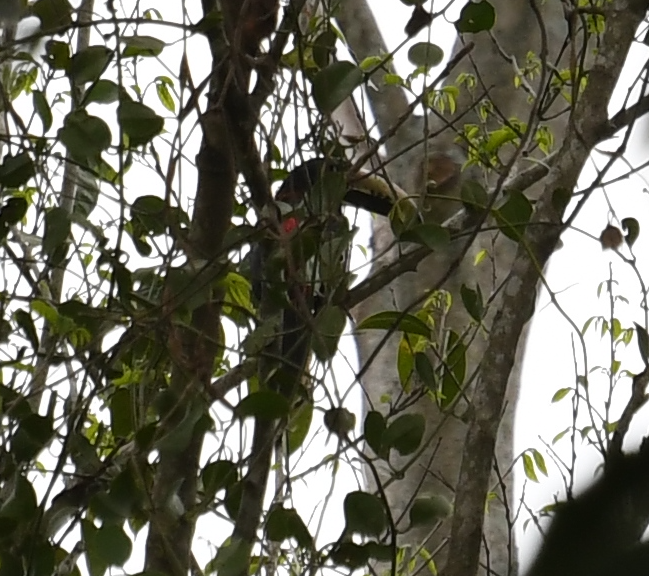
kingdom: Animalia
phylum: Chordata
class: Aves
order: Piciformes
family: Ramphastidae
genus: Pteroglossus
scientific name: Pteroglossus torquatus
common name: Collared aracari
